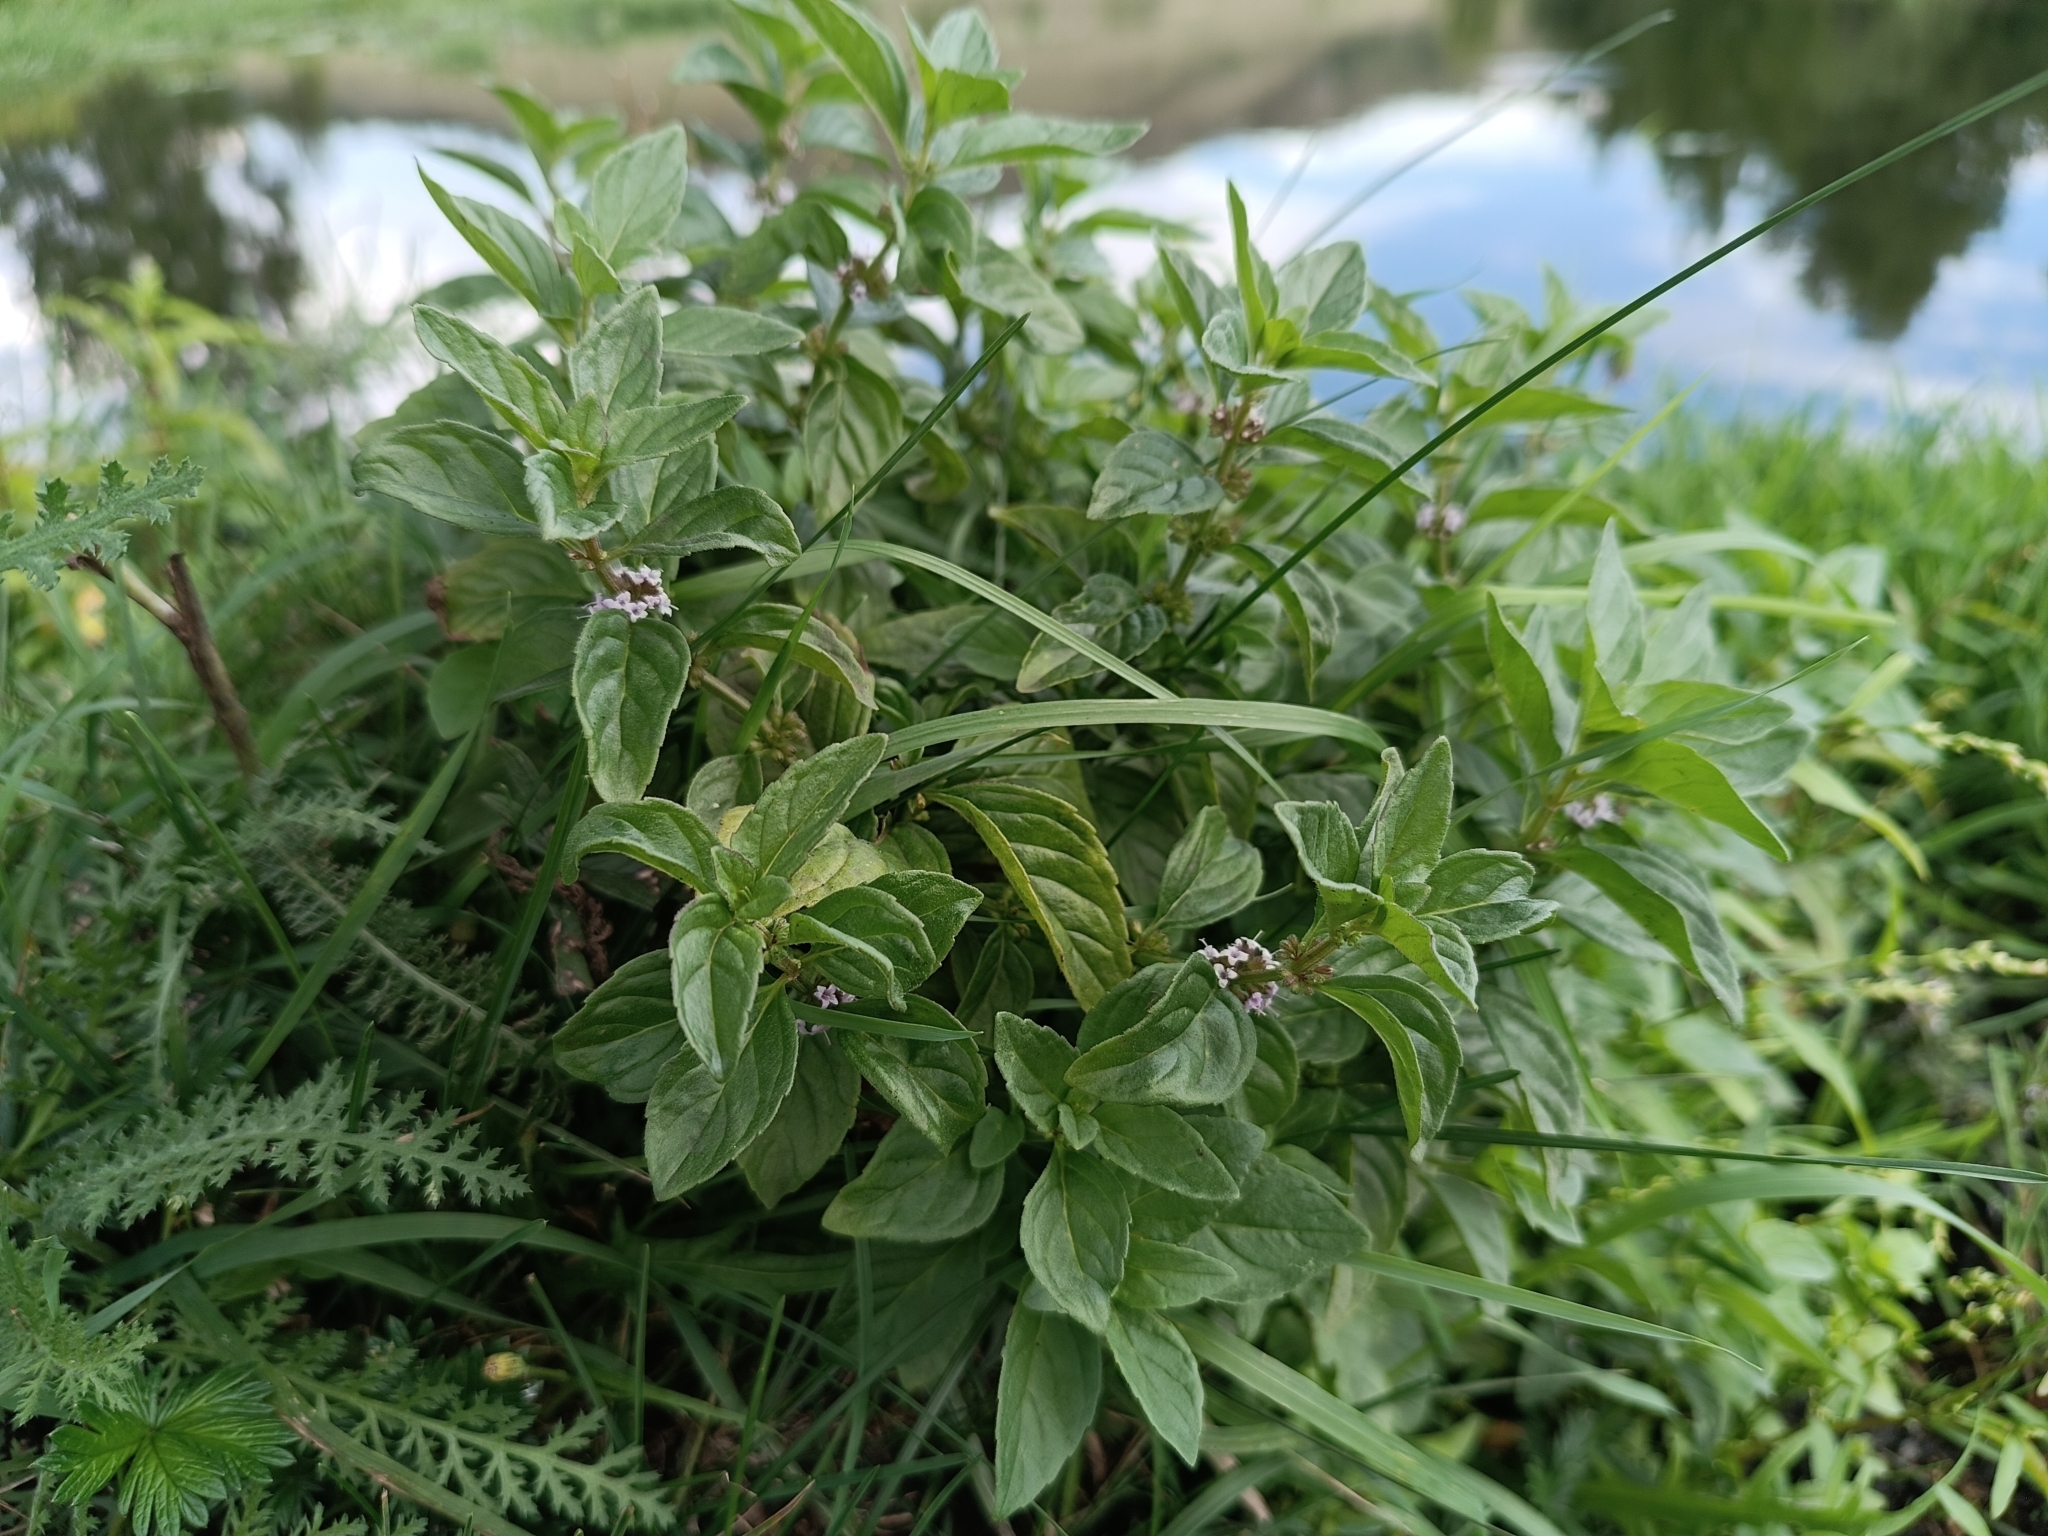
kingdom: Plantae
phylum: Tracheophyta
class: Magnoliopsida
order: Lamiales
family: Lamiaceae
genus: Mentha
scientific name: Mentha arvensis
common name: Corn mint
